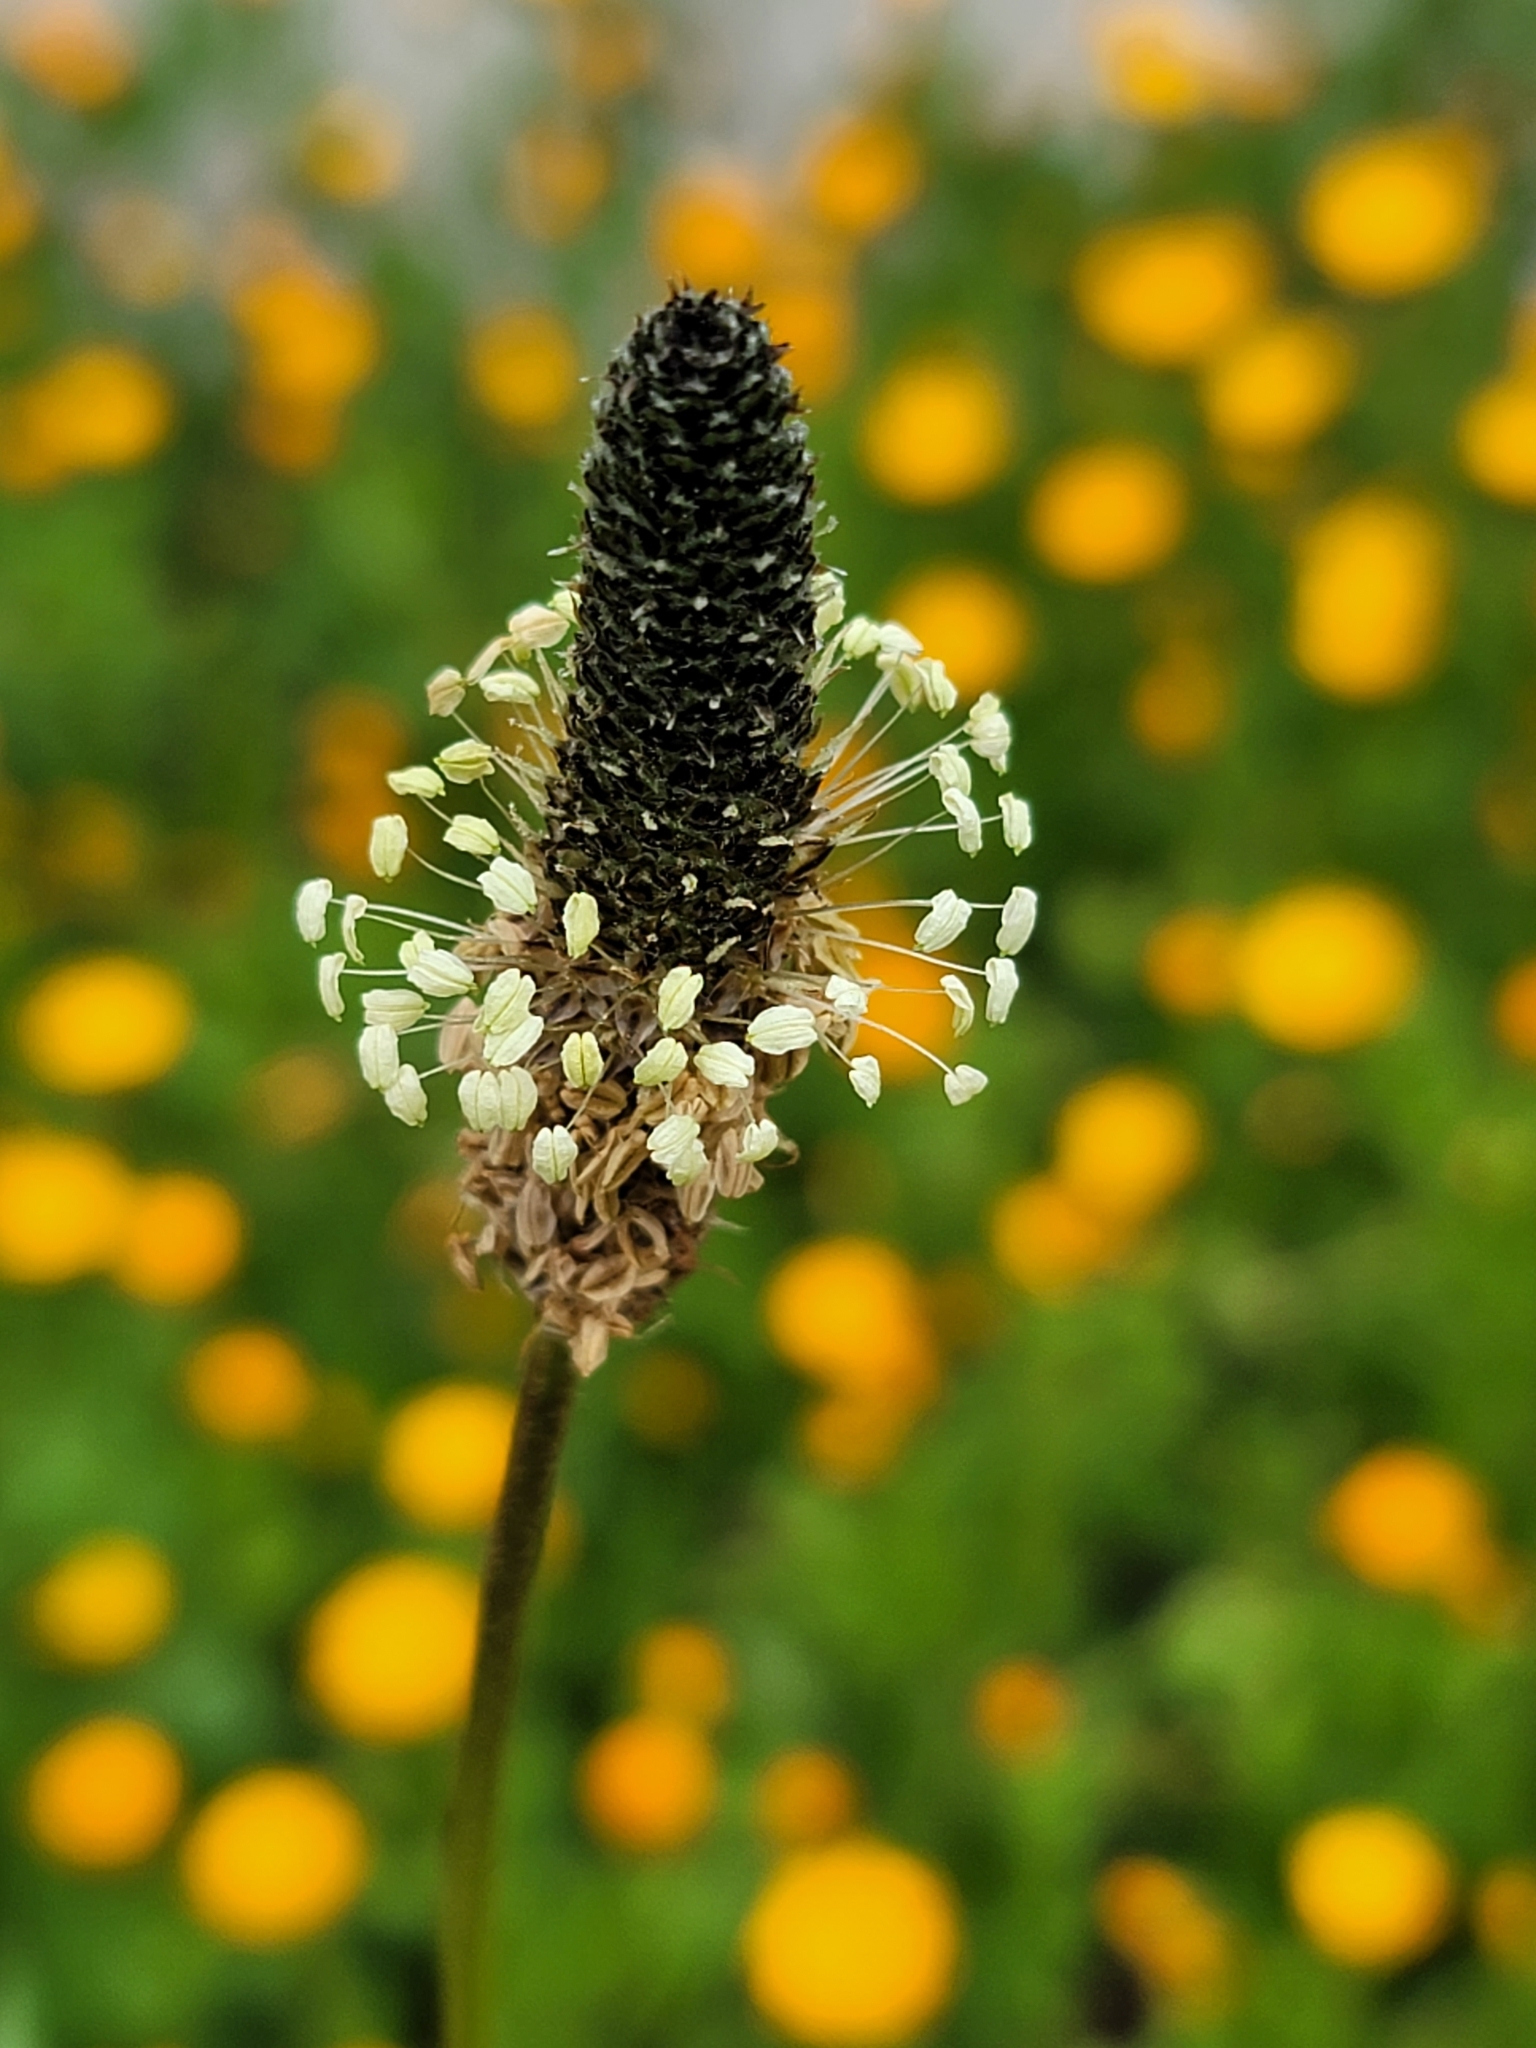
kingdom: Plantae
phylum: Tracheophyta
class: Magnoliopsida
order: Lamiales
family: Plantaginaceae
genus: Plantago
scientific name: Plantago lanceolata
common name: Ribwort plantain
